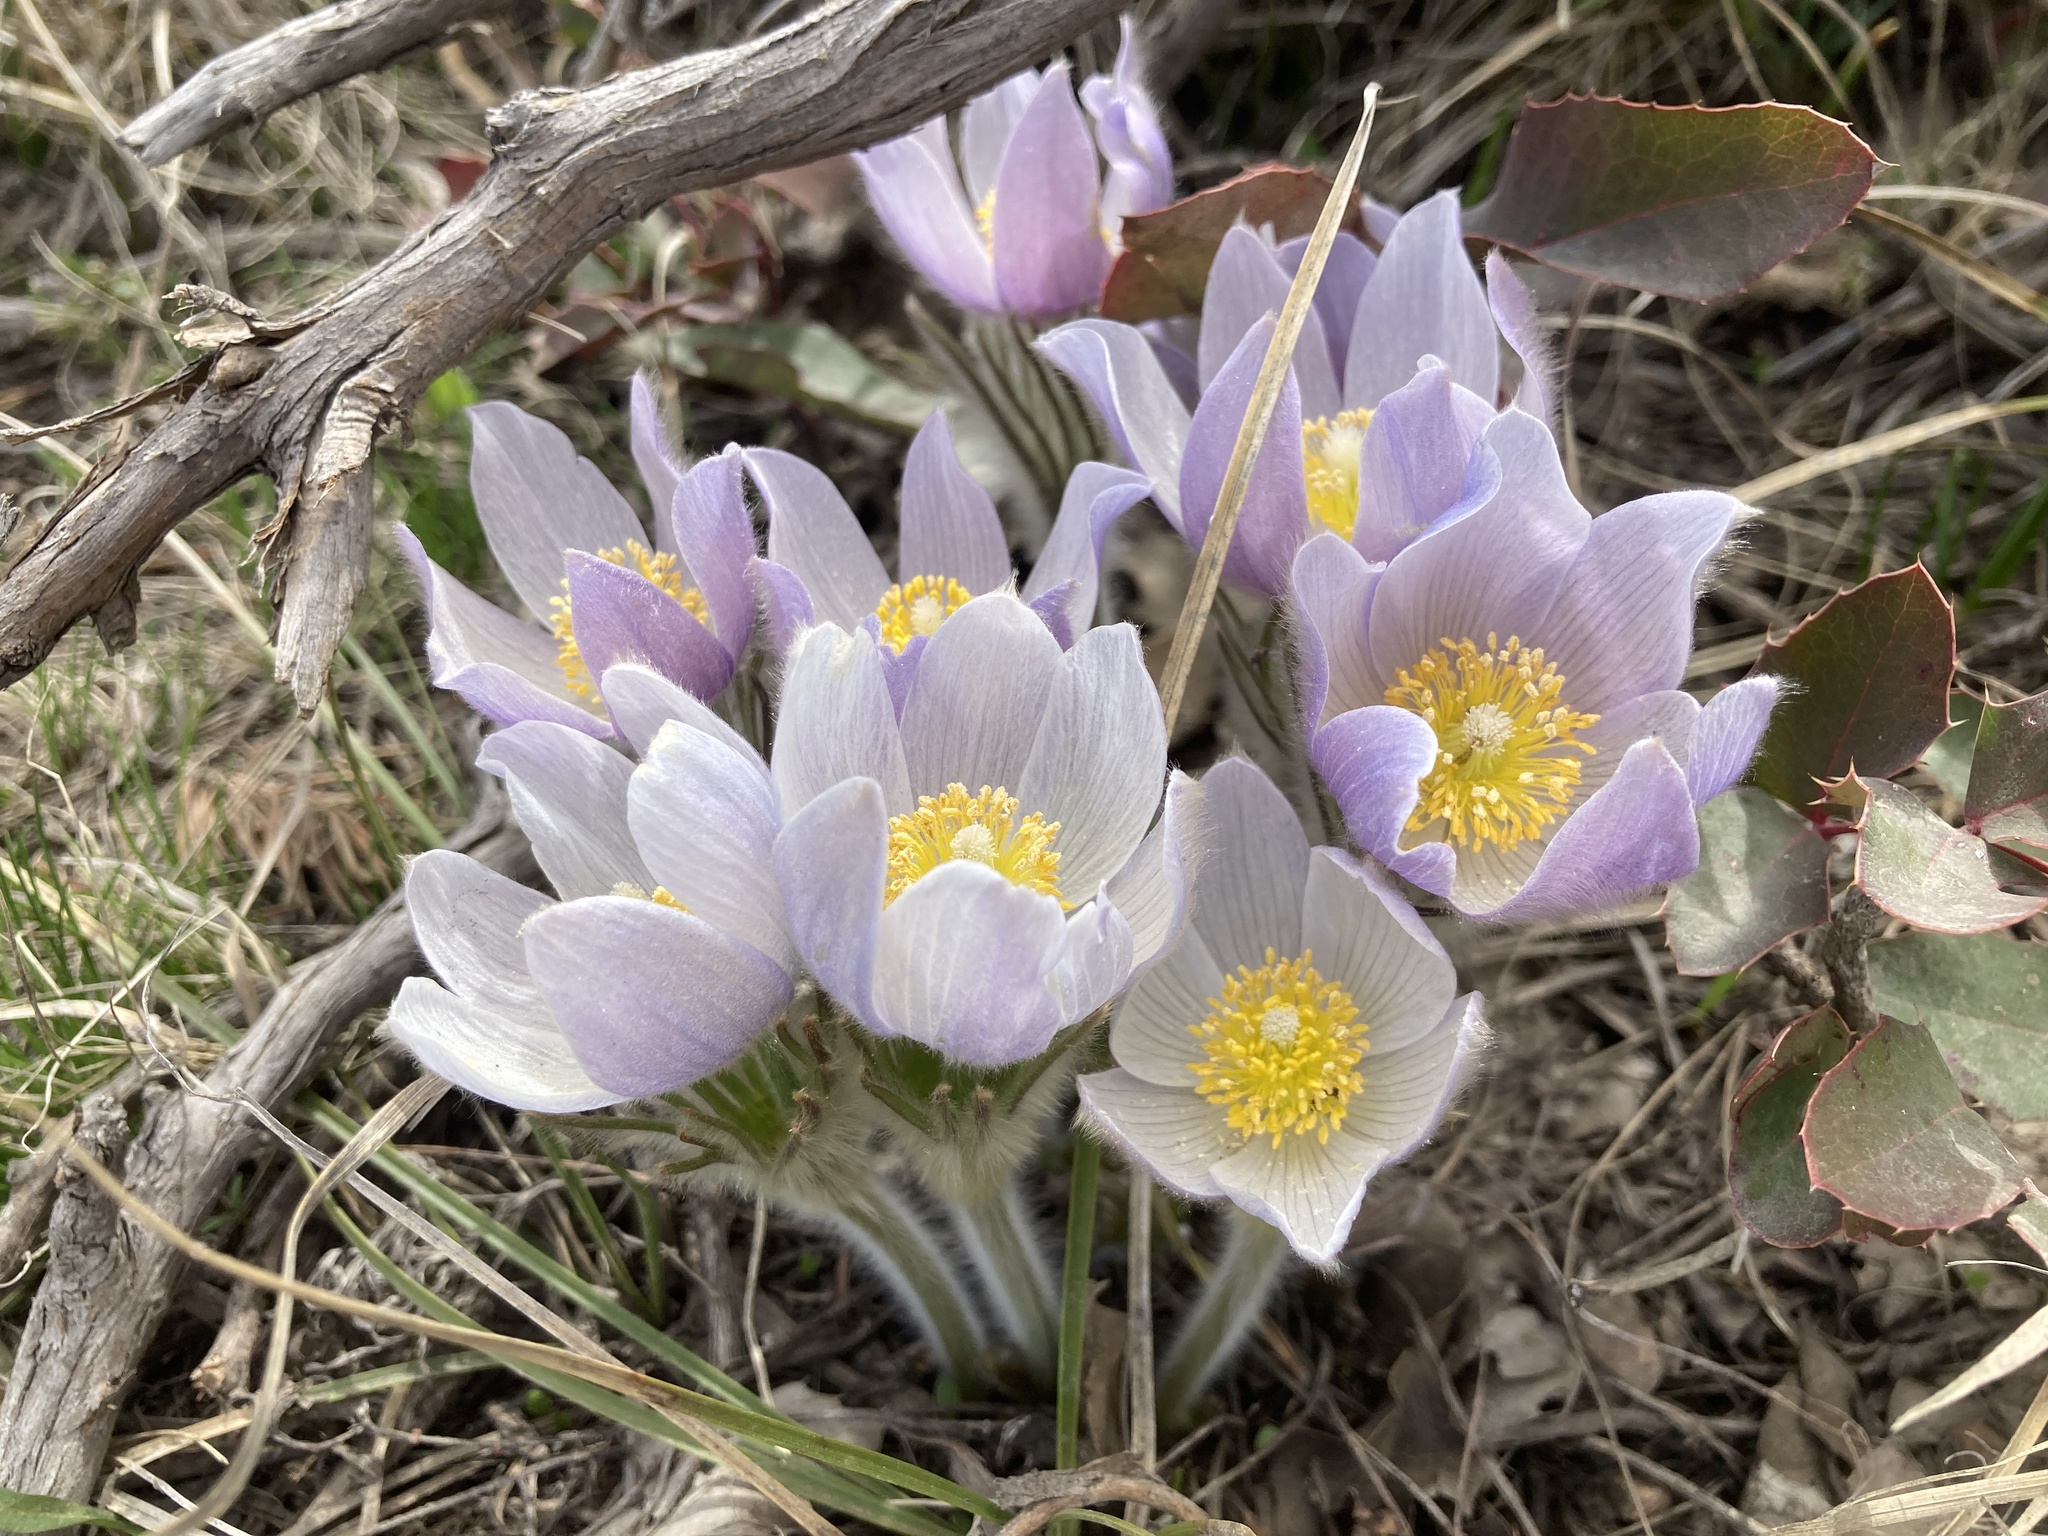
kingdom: Plantae
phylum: Tracheophyta
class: Magnoliopsida
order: Ranunculales
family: Ranunculaceae
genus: Pulsatilla
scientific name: Pulsatilla nuttalliana
